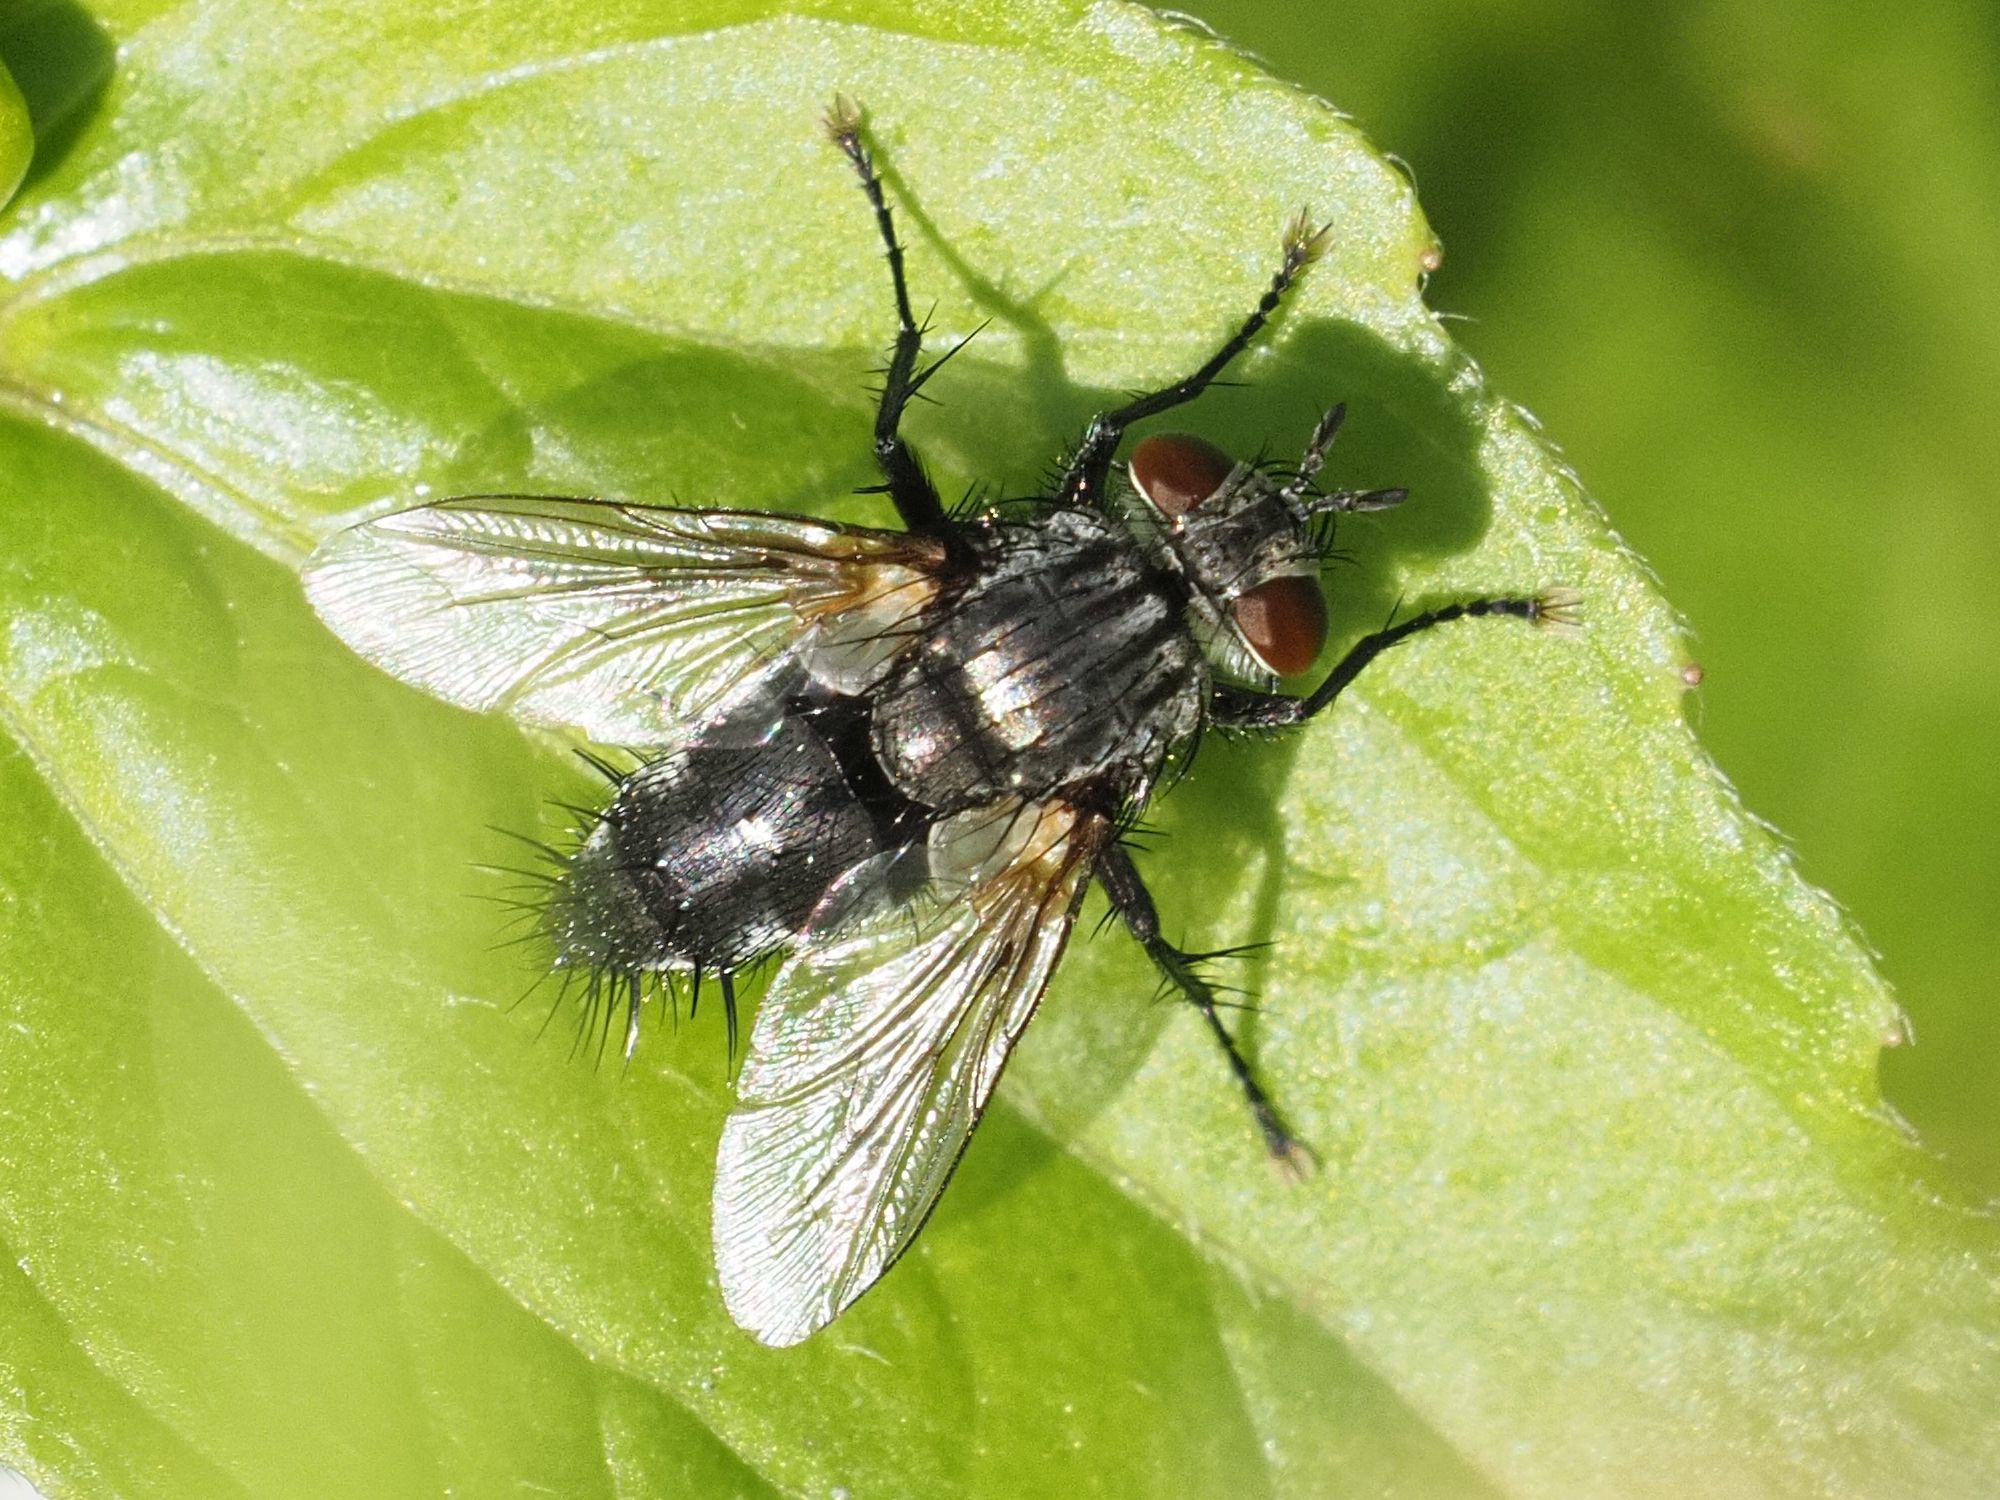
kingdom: Animalia
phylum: Arthropoda
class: Insecta
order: Diptera
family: Tachinidae
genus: Voria
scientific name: Voria ruralis
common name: Parasitic fly
